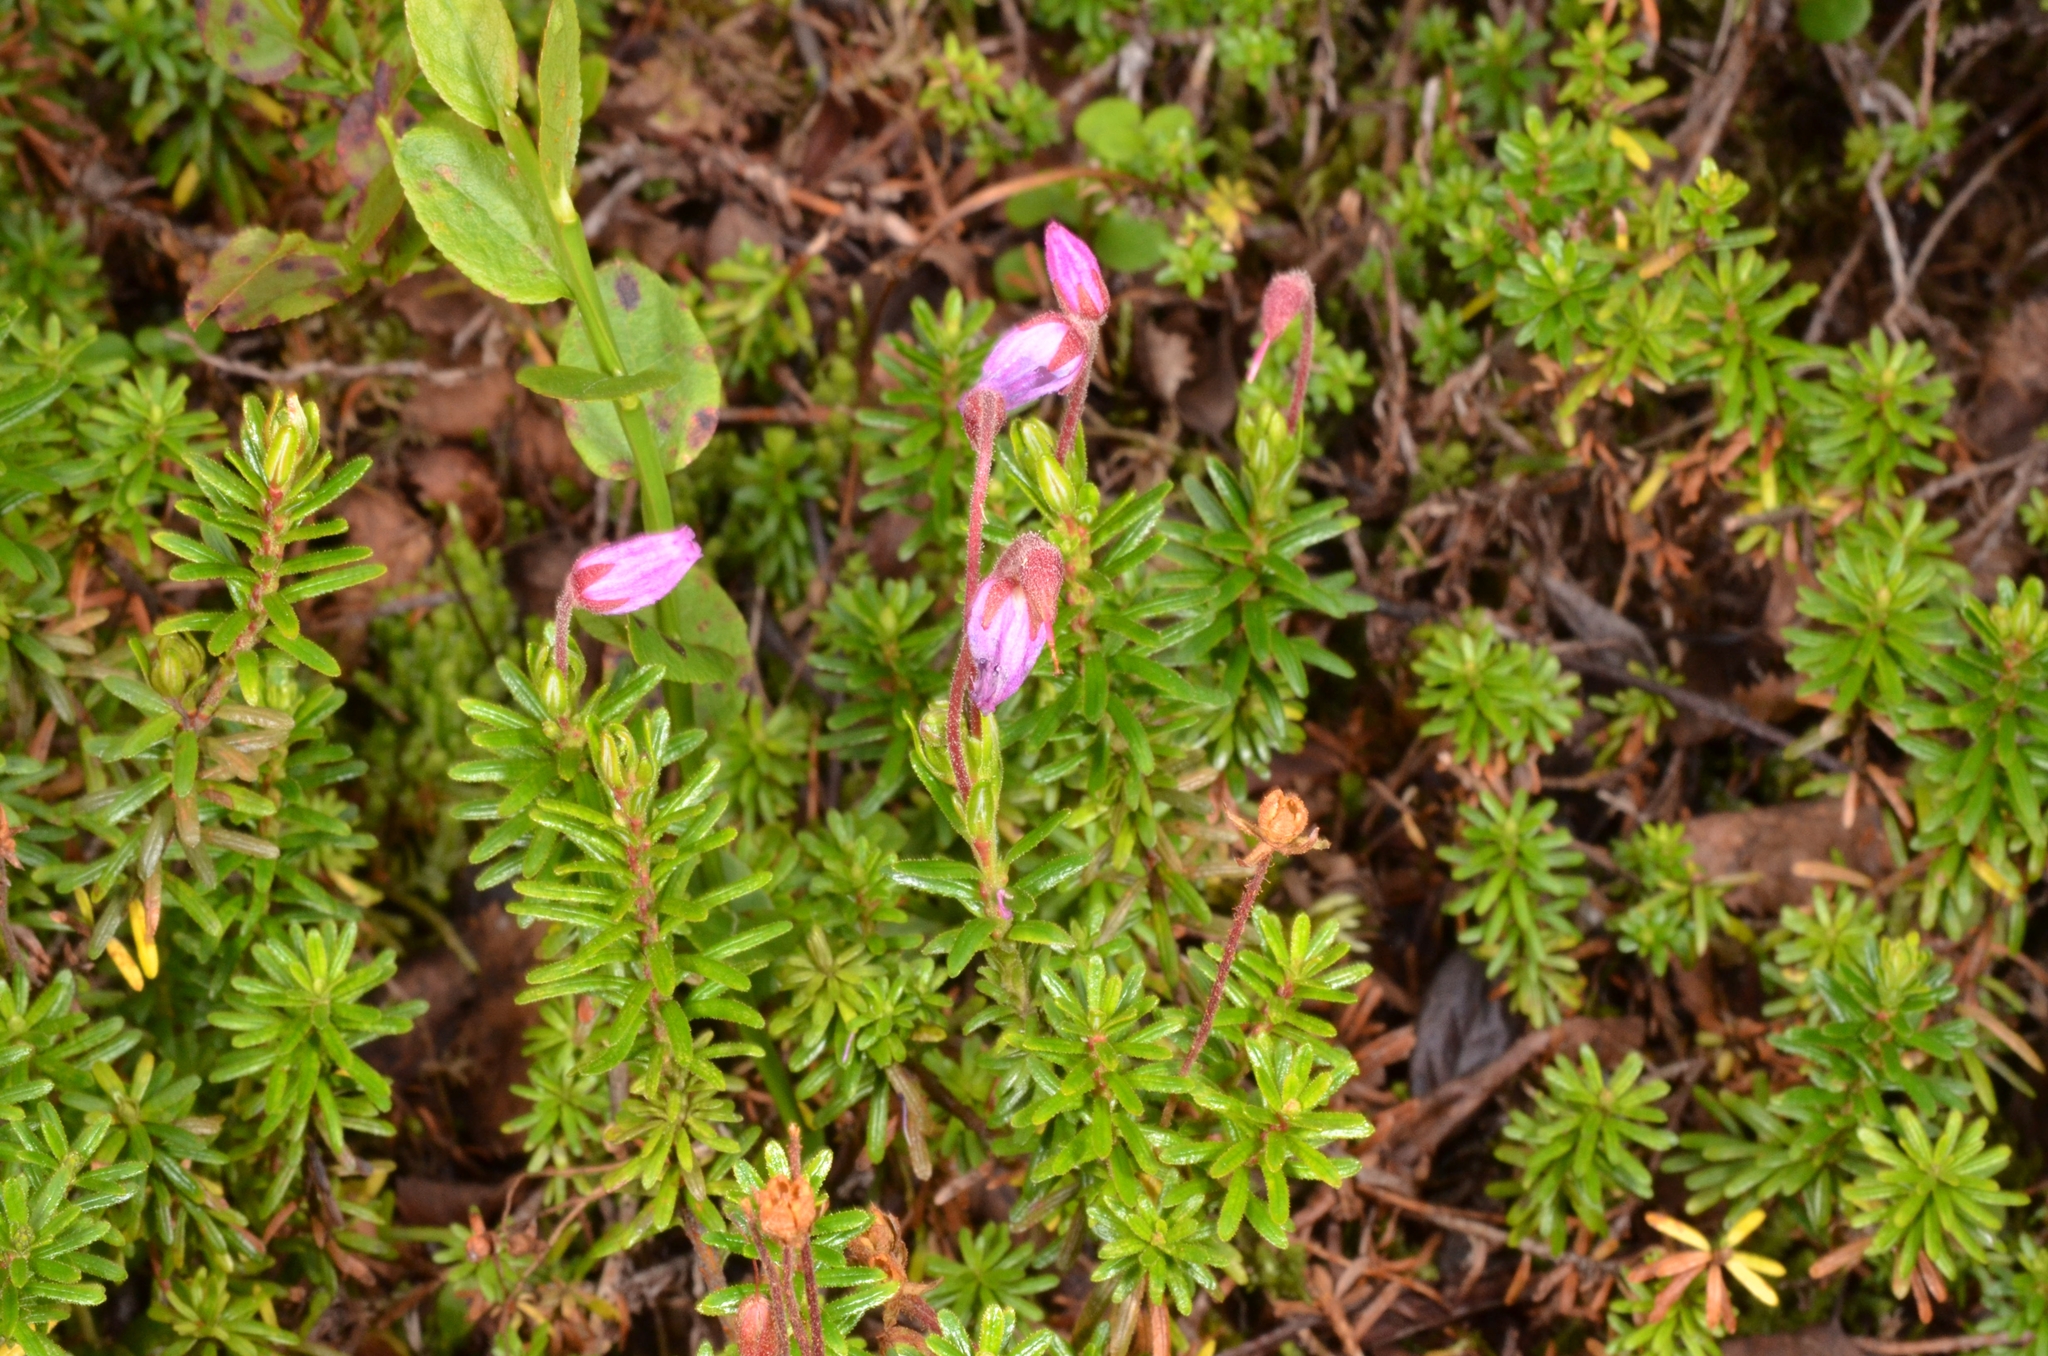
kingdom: Plantae
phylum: Tracheophyta
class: Magnoliopsida
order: Ericales
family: Ericaceae
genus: Phyllodoce
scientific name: Phyllodoce caerulea
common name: Blue heath
